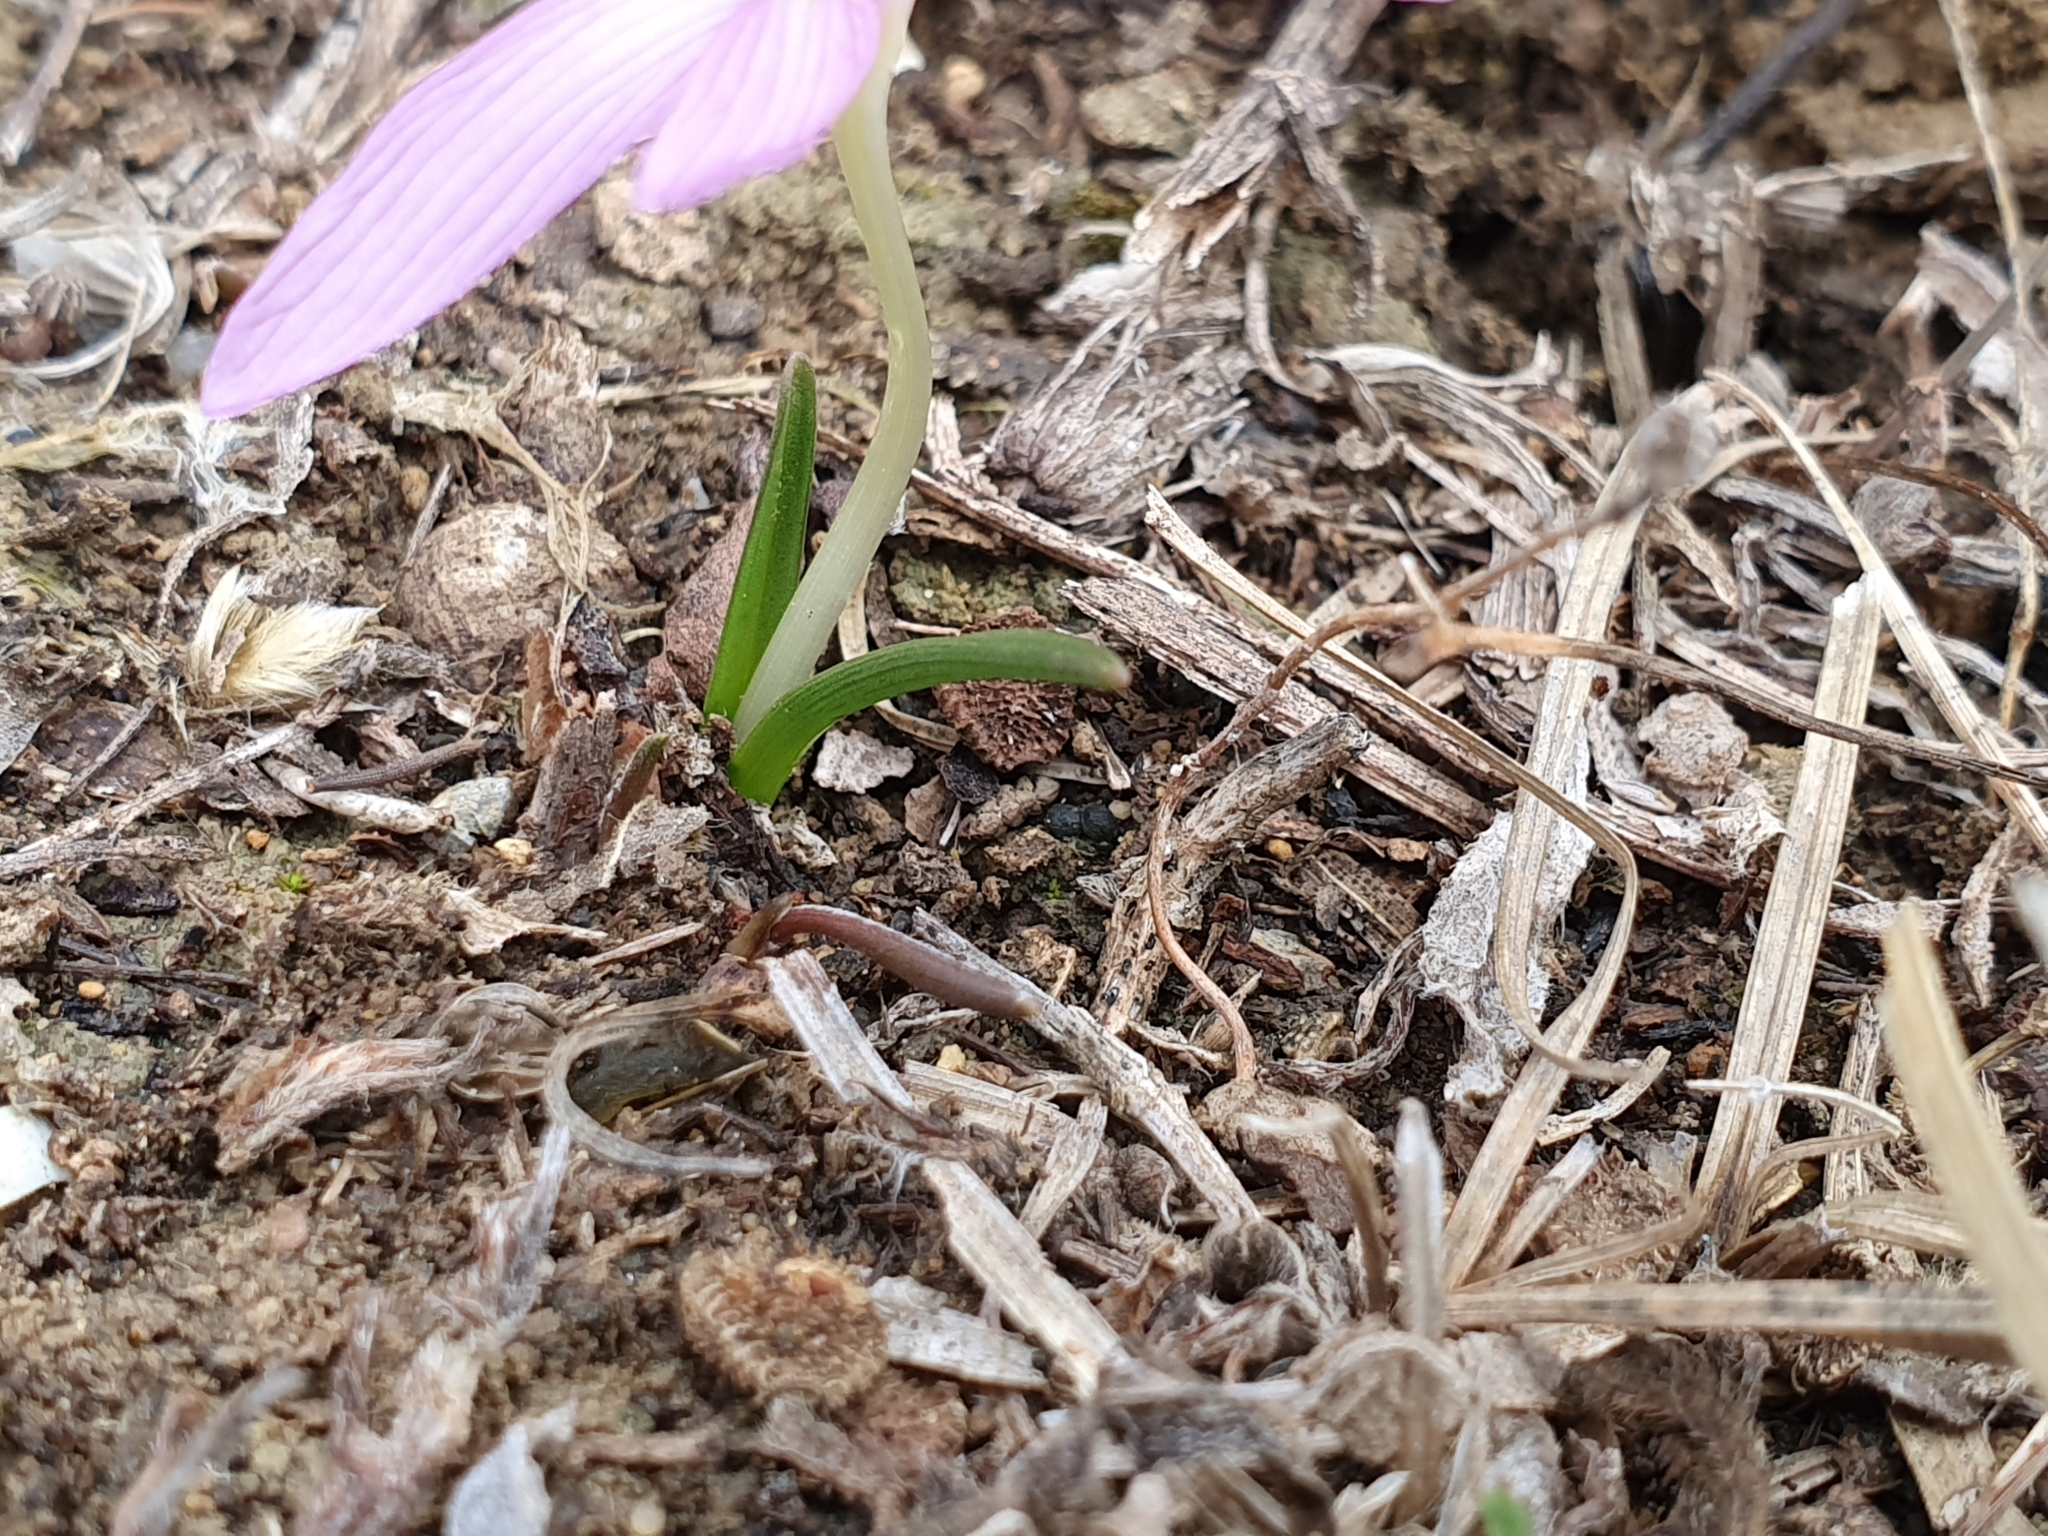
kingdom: Plantae
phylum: Tracheophyta
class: Liliopsida
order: Liliales
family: Colchicaceae
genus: Colchicum
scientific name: Colchicum cupanii
